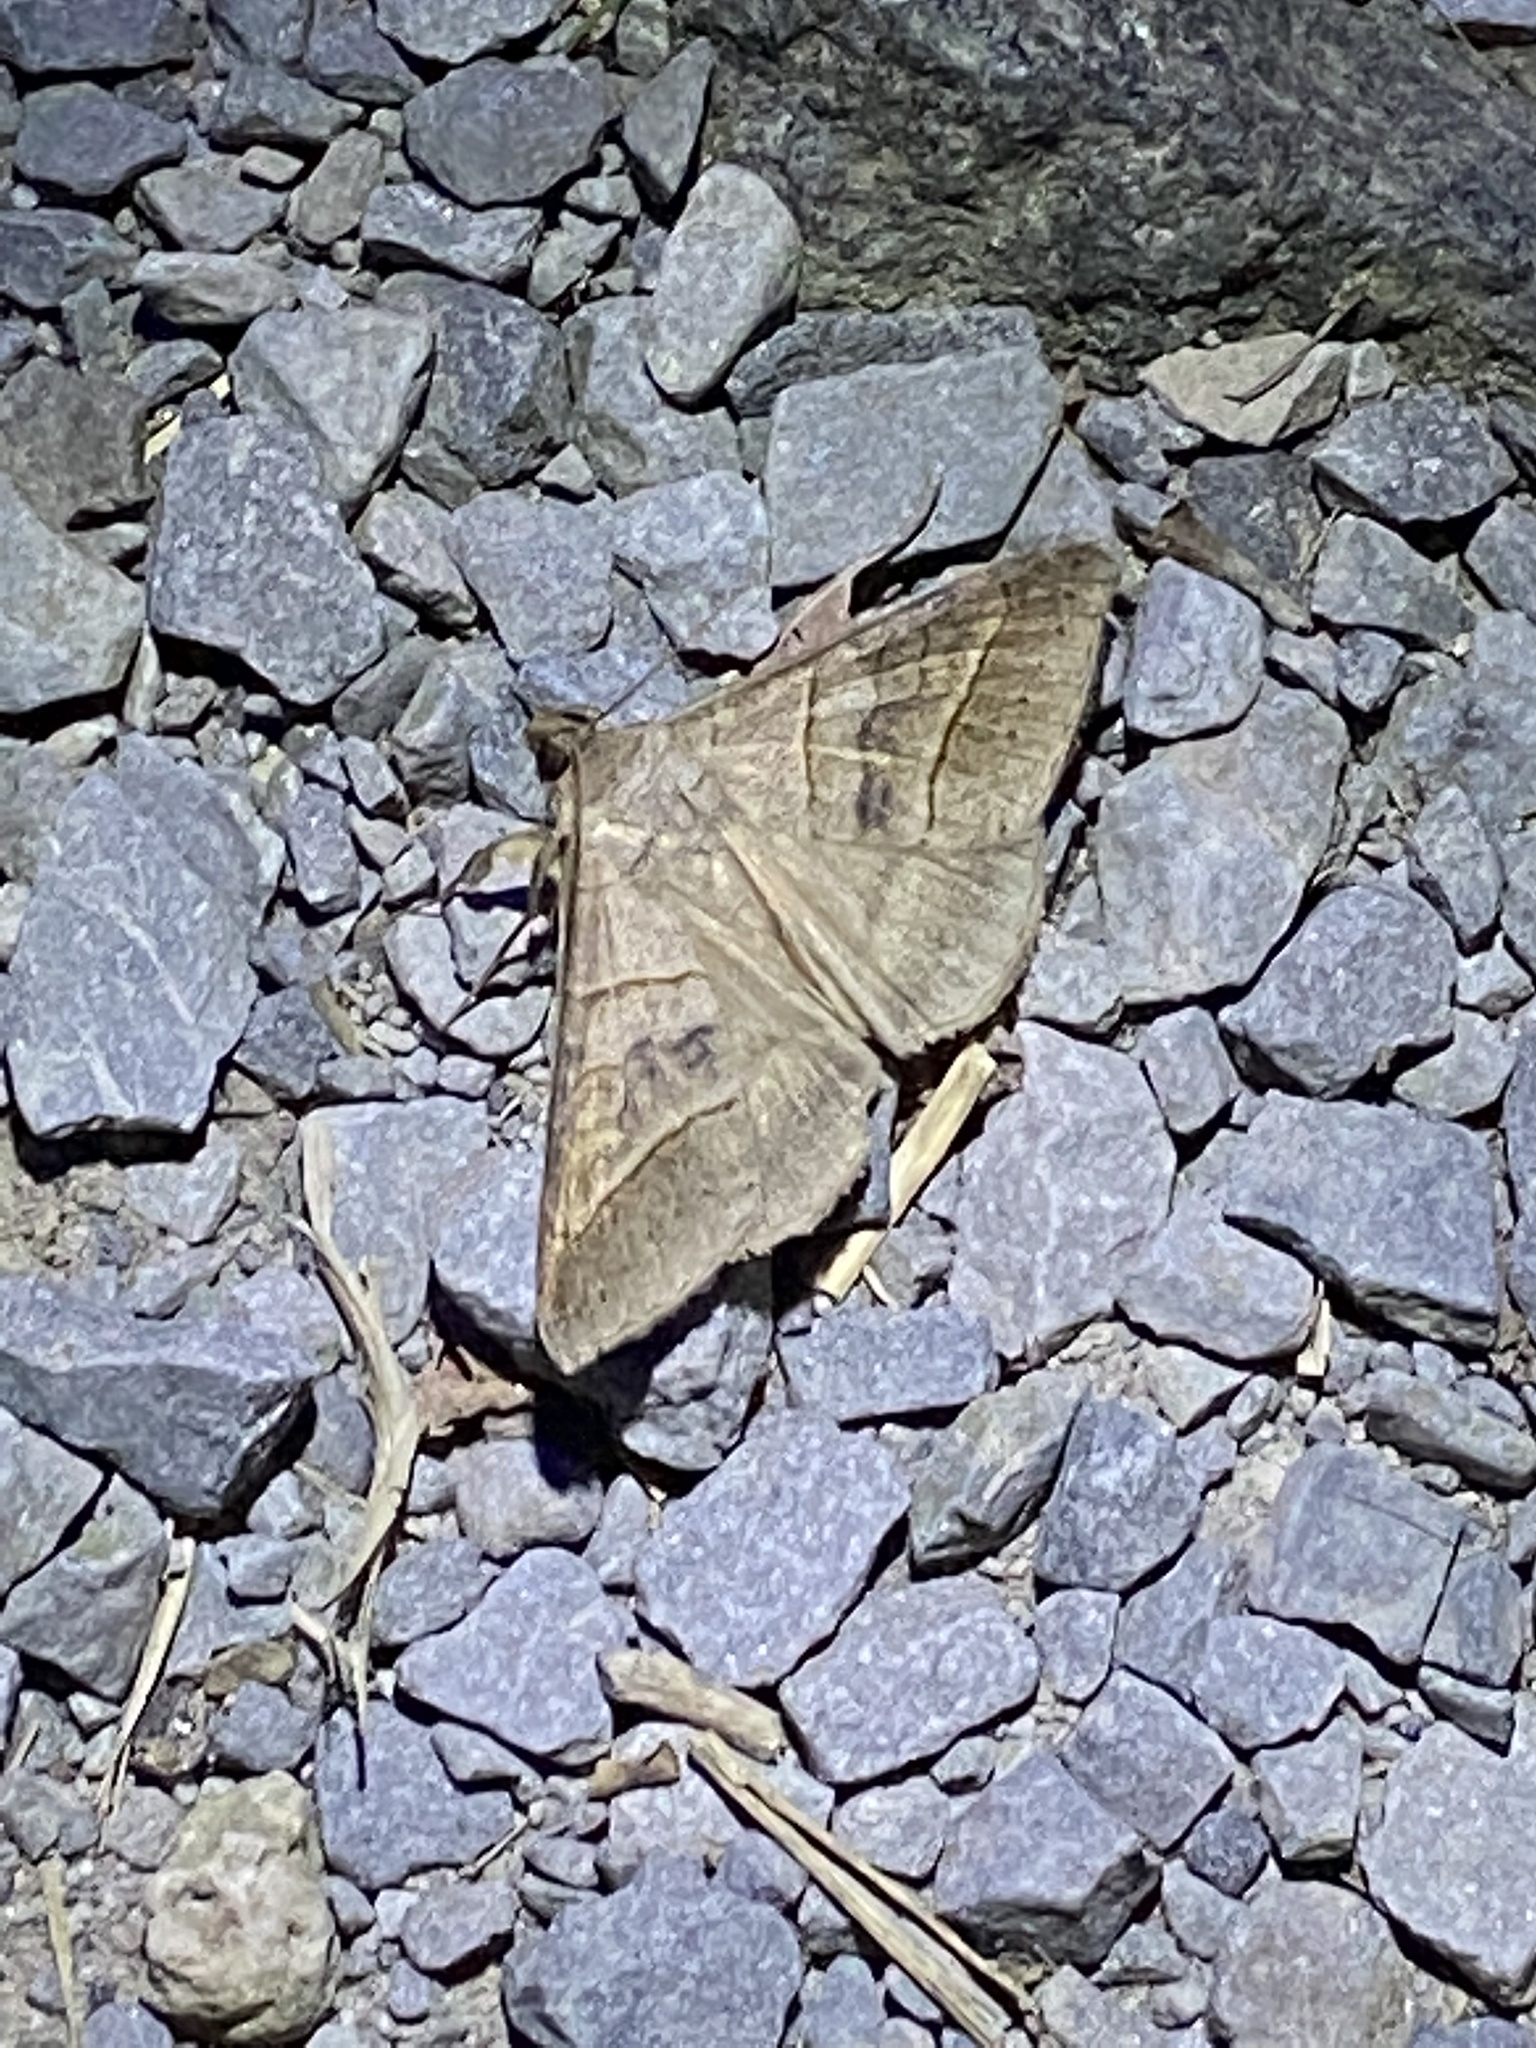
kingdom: Animalia
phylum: Arthropoda
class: Insecta
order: Lepidoptera
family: Erebidae
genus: Mocis
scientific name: Mocis texana
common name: Texas mocis moth
